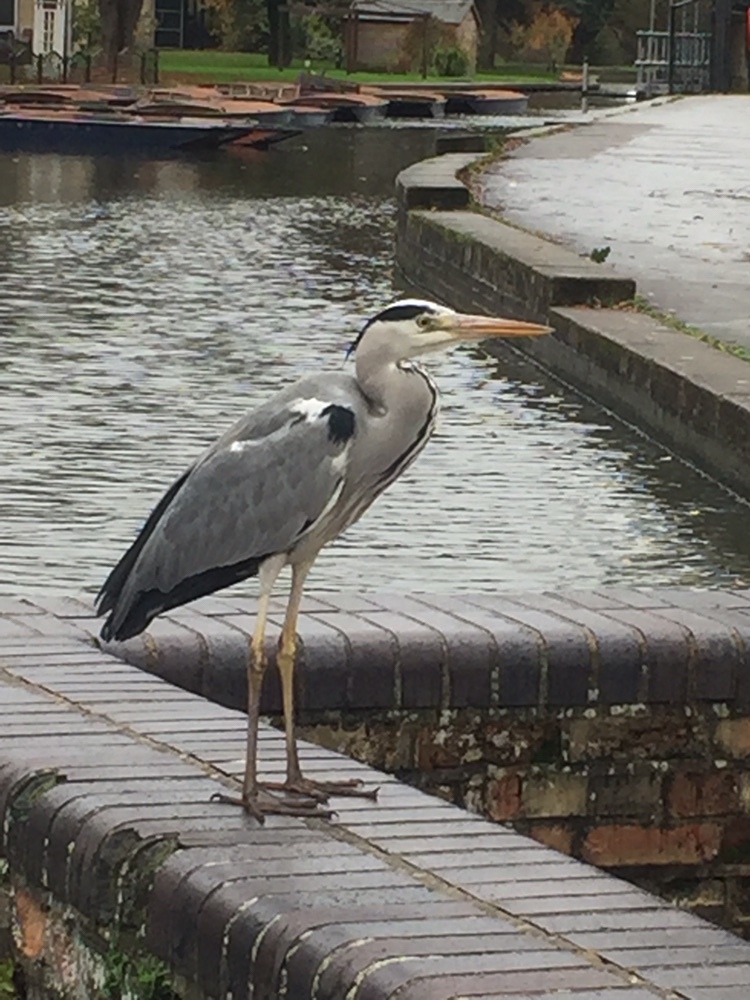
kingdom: Animalia
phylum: Chordata
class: Aves
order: Pelecaniformes
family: Ardeidae
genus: Ardea
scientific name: Ardea cinerea
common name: Grey heron
